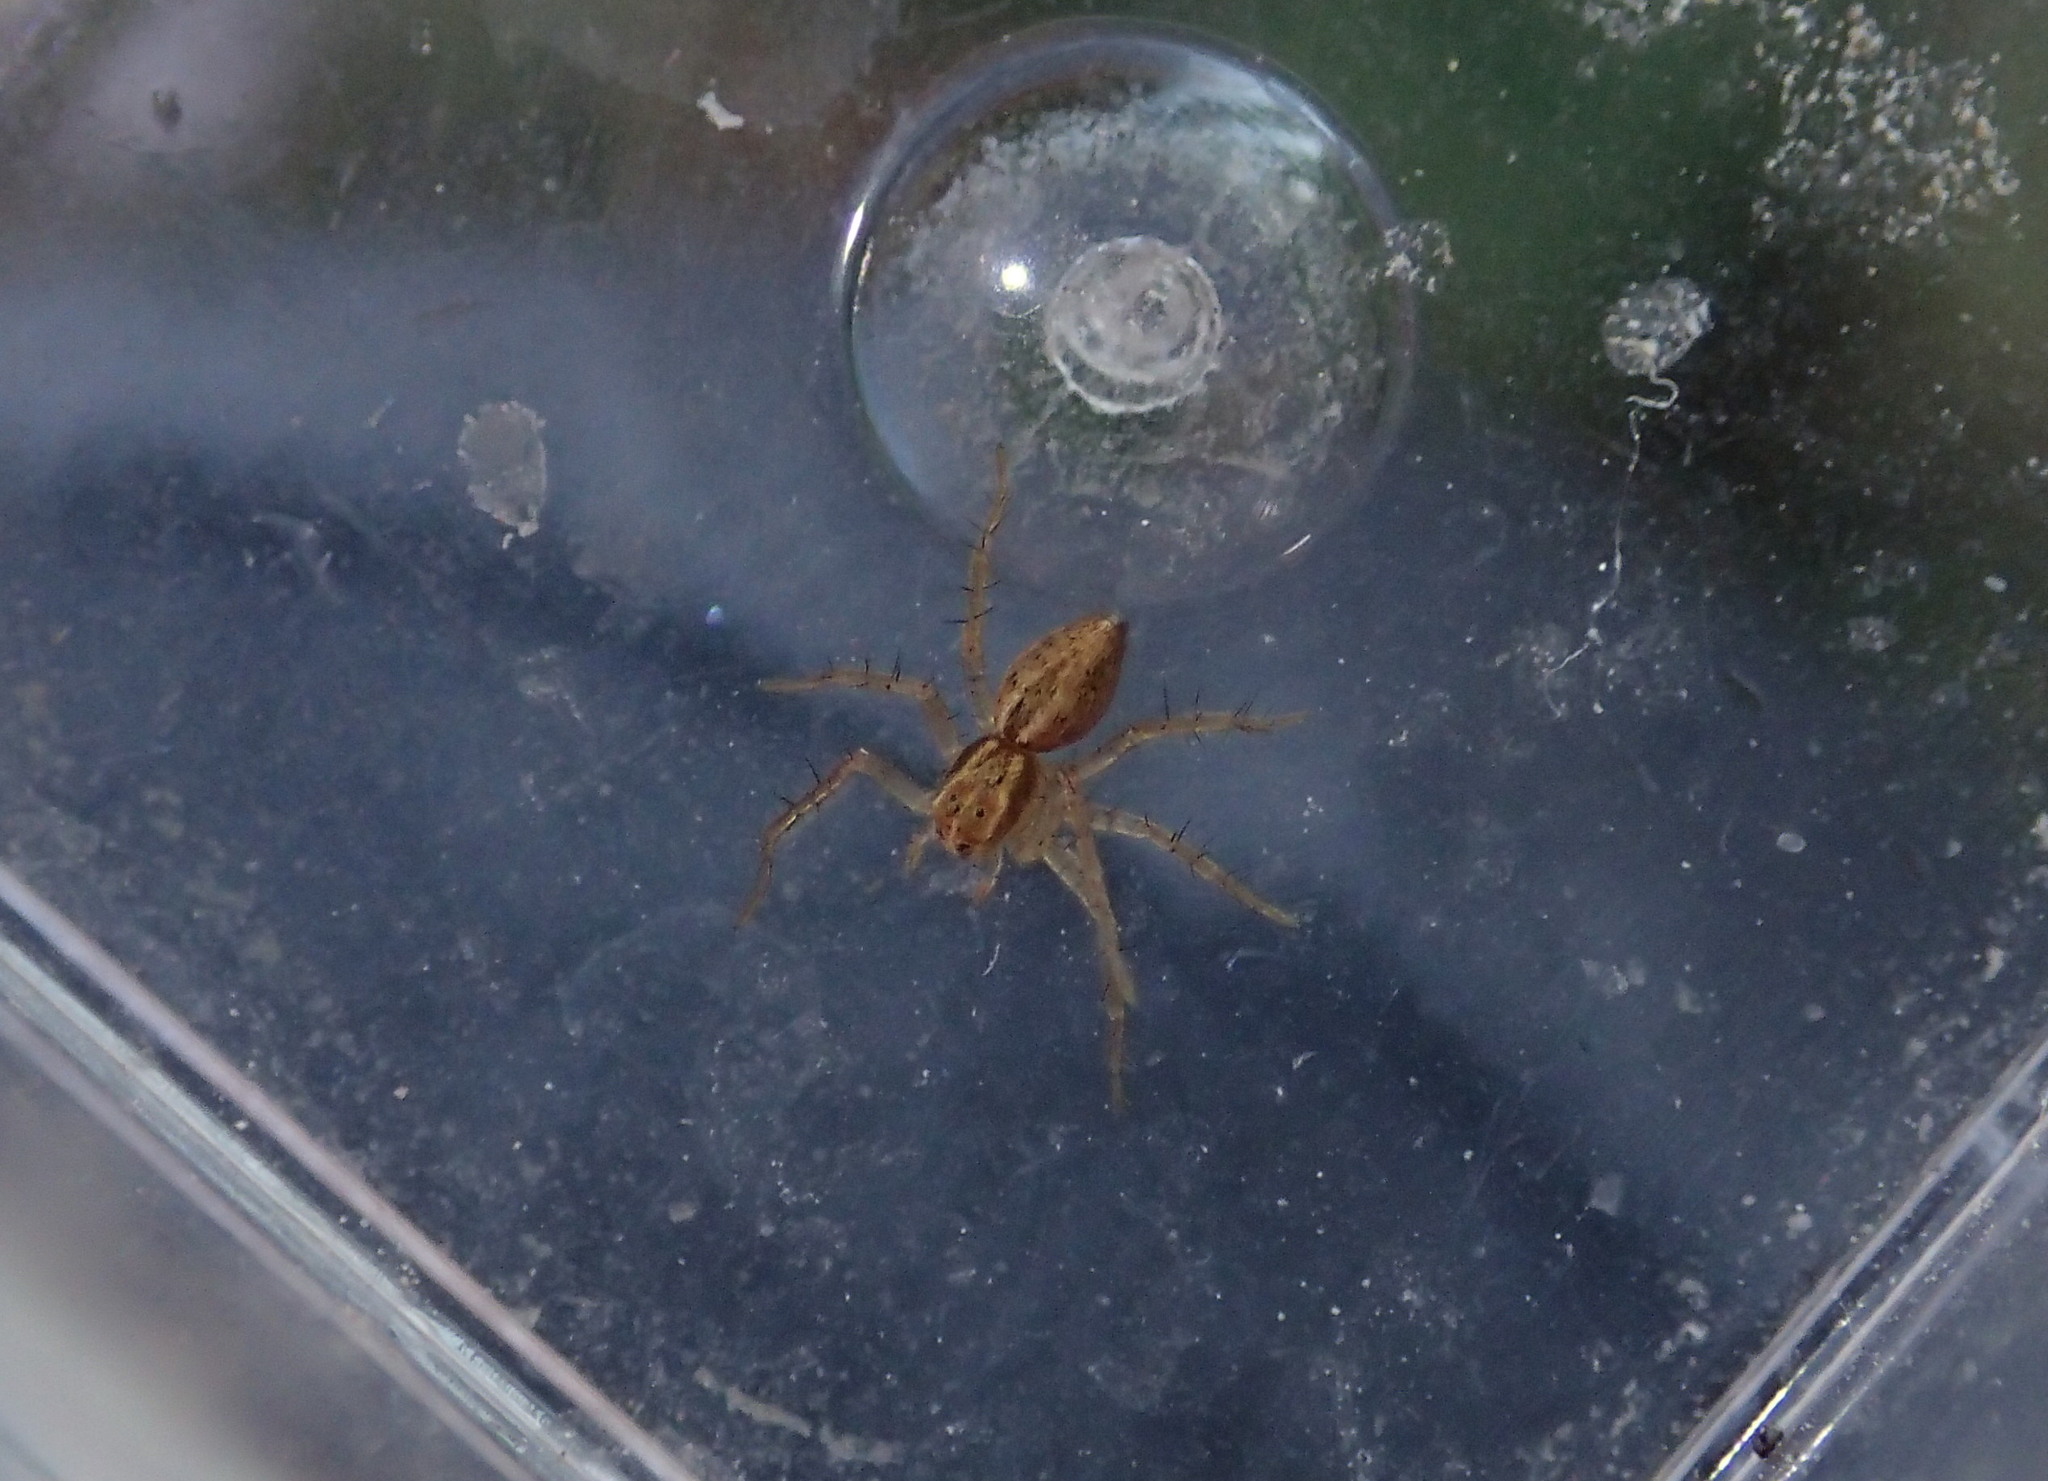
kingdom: Animalia
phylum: Arthropoda
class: Arachnida
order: Araneae
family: Oxyopidae
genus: Oxyopes
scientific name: Oxyopes lineatus
